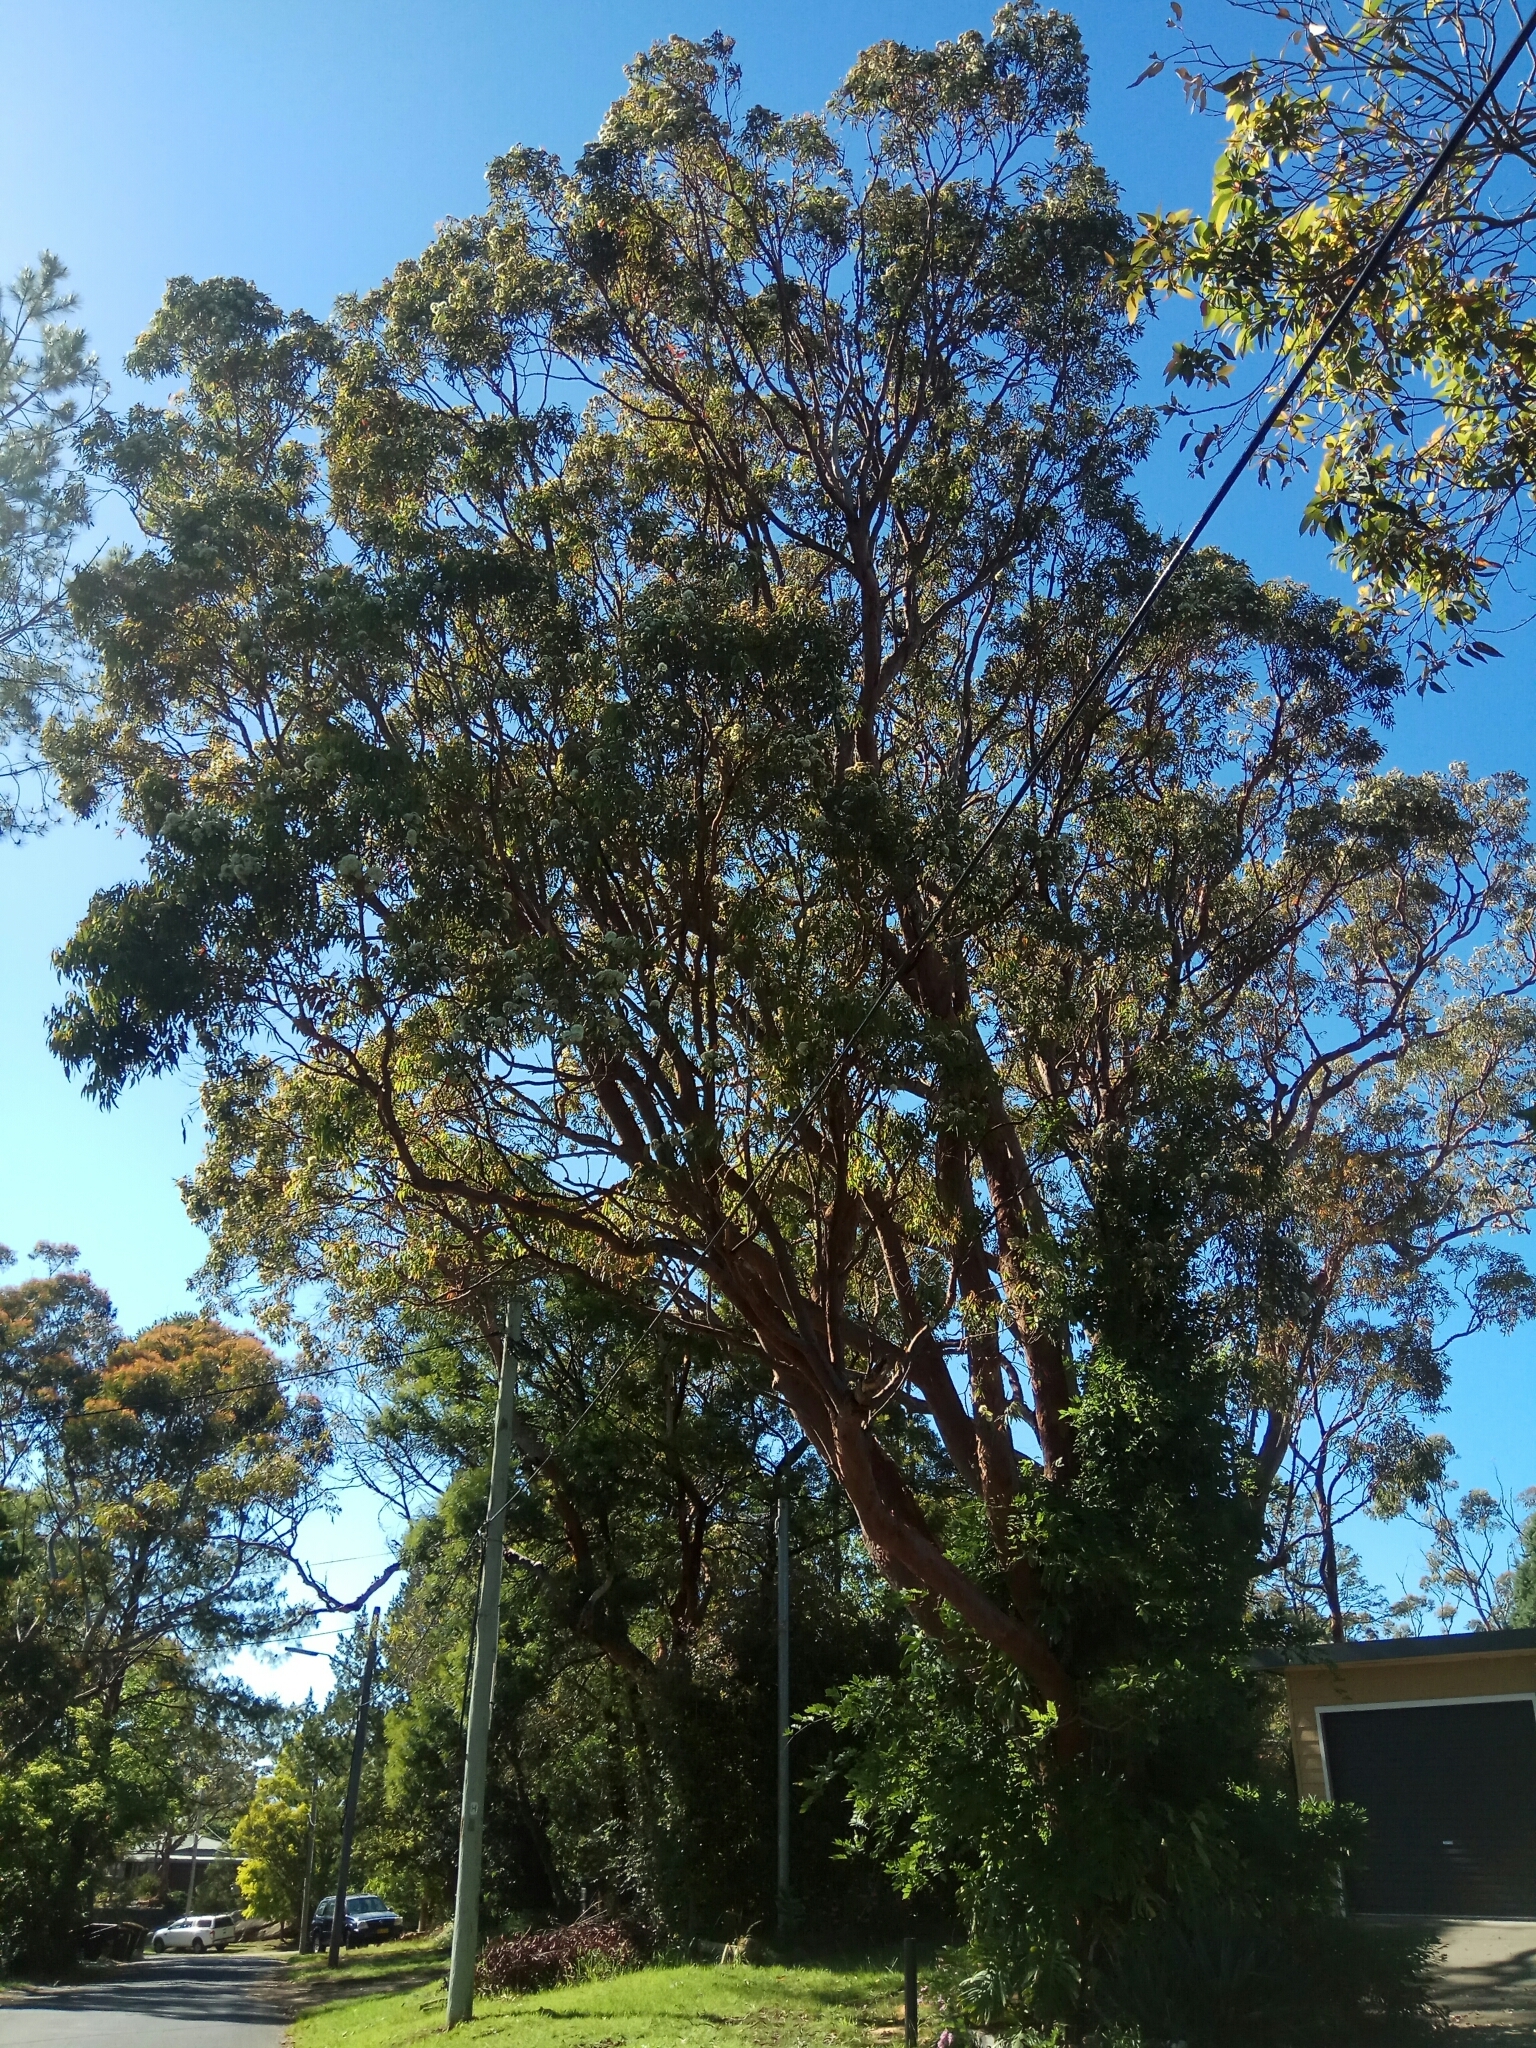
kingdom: Plantae
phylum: Tracheophyta
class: Magnoliopsida
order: Myrtales
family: Myrtaceae
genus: Angophora
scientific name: Angophora costata
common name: Gum myrtle
